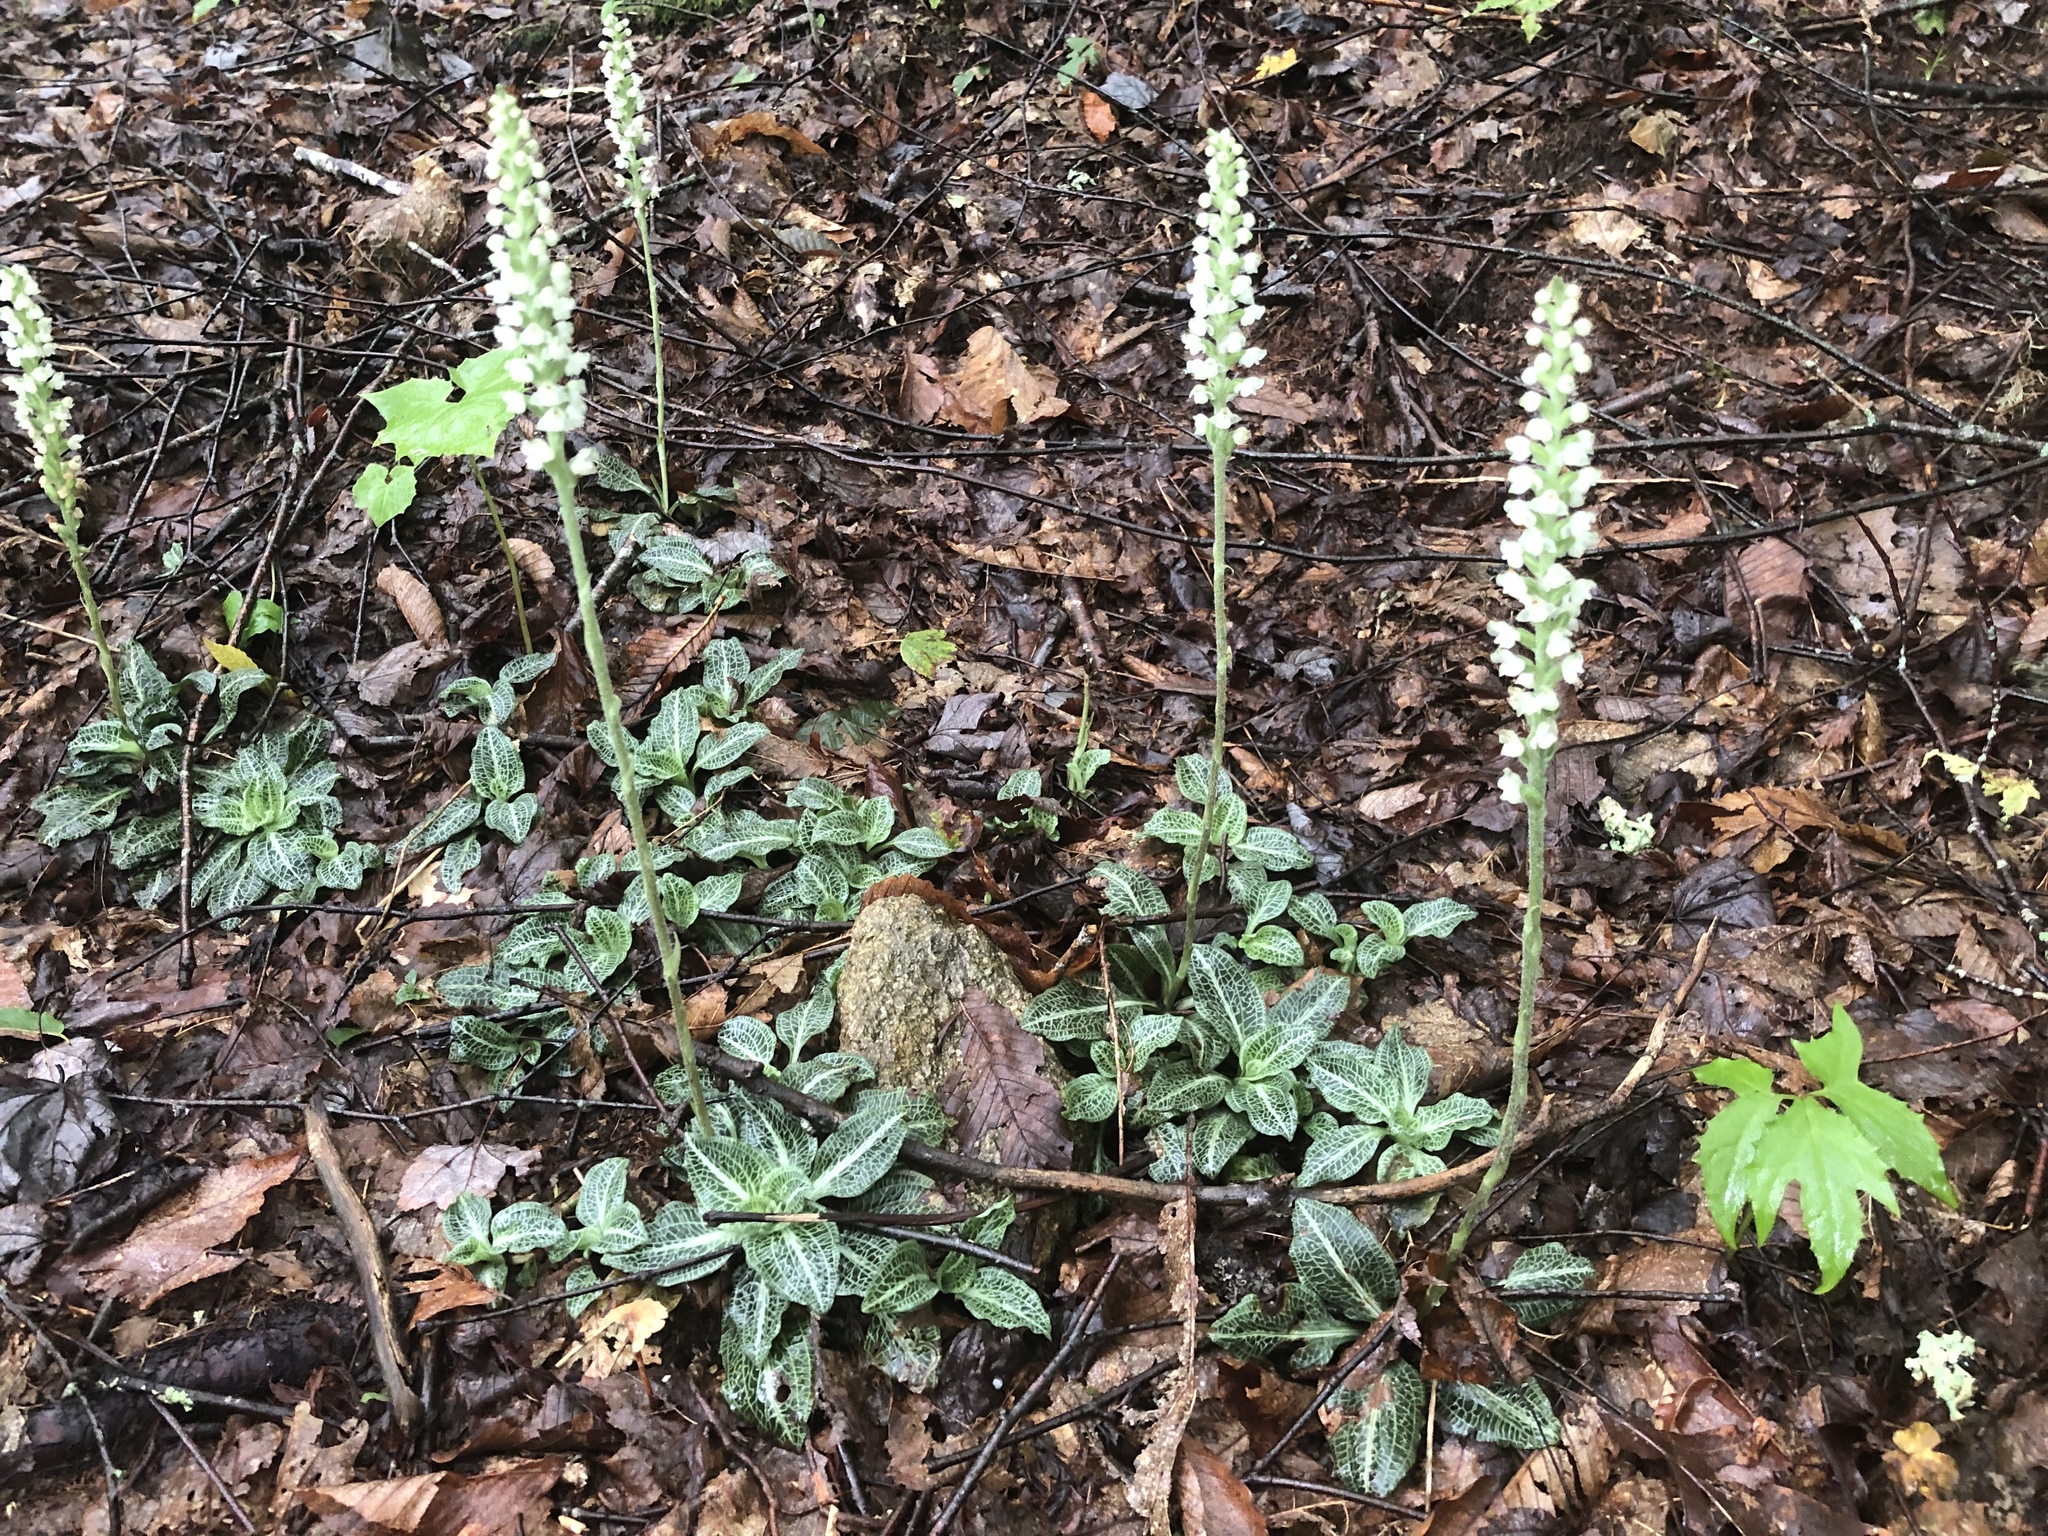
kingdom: Plantae
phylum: Tracheophyta
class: Liliopsida
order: Asparagales
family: Orchidaceae
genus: Goodyera
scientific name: Goodyera pubescens
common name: Downy rattlesnake-plantain
